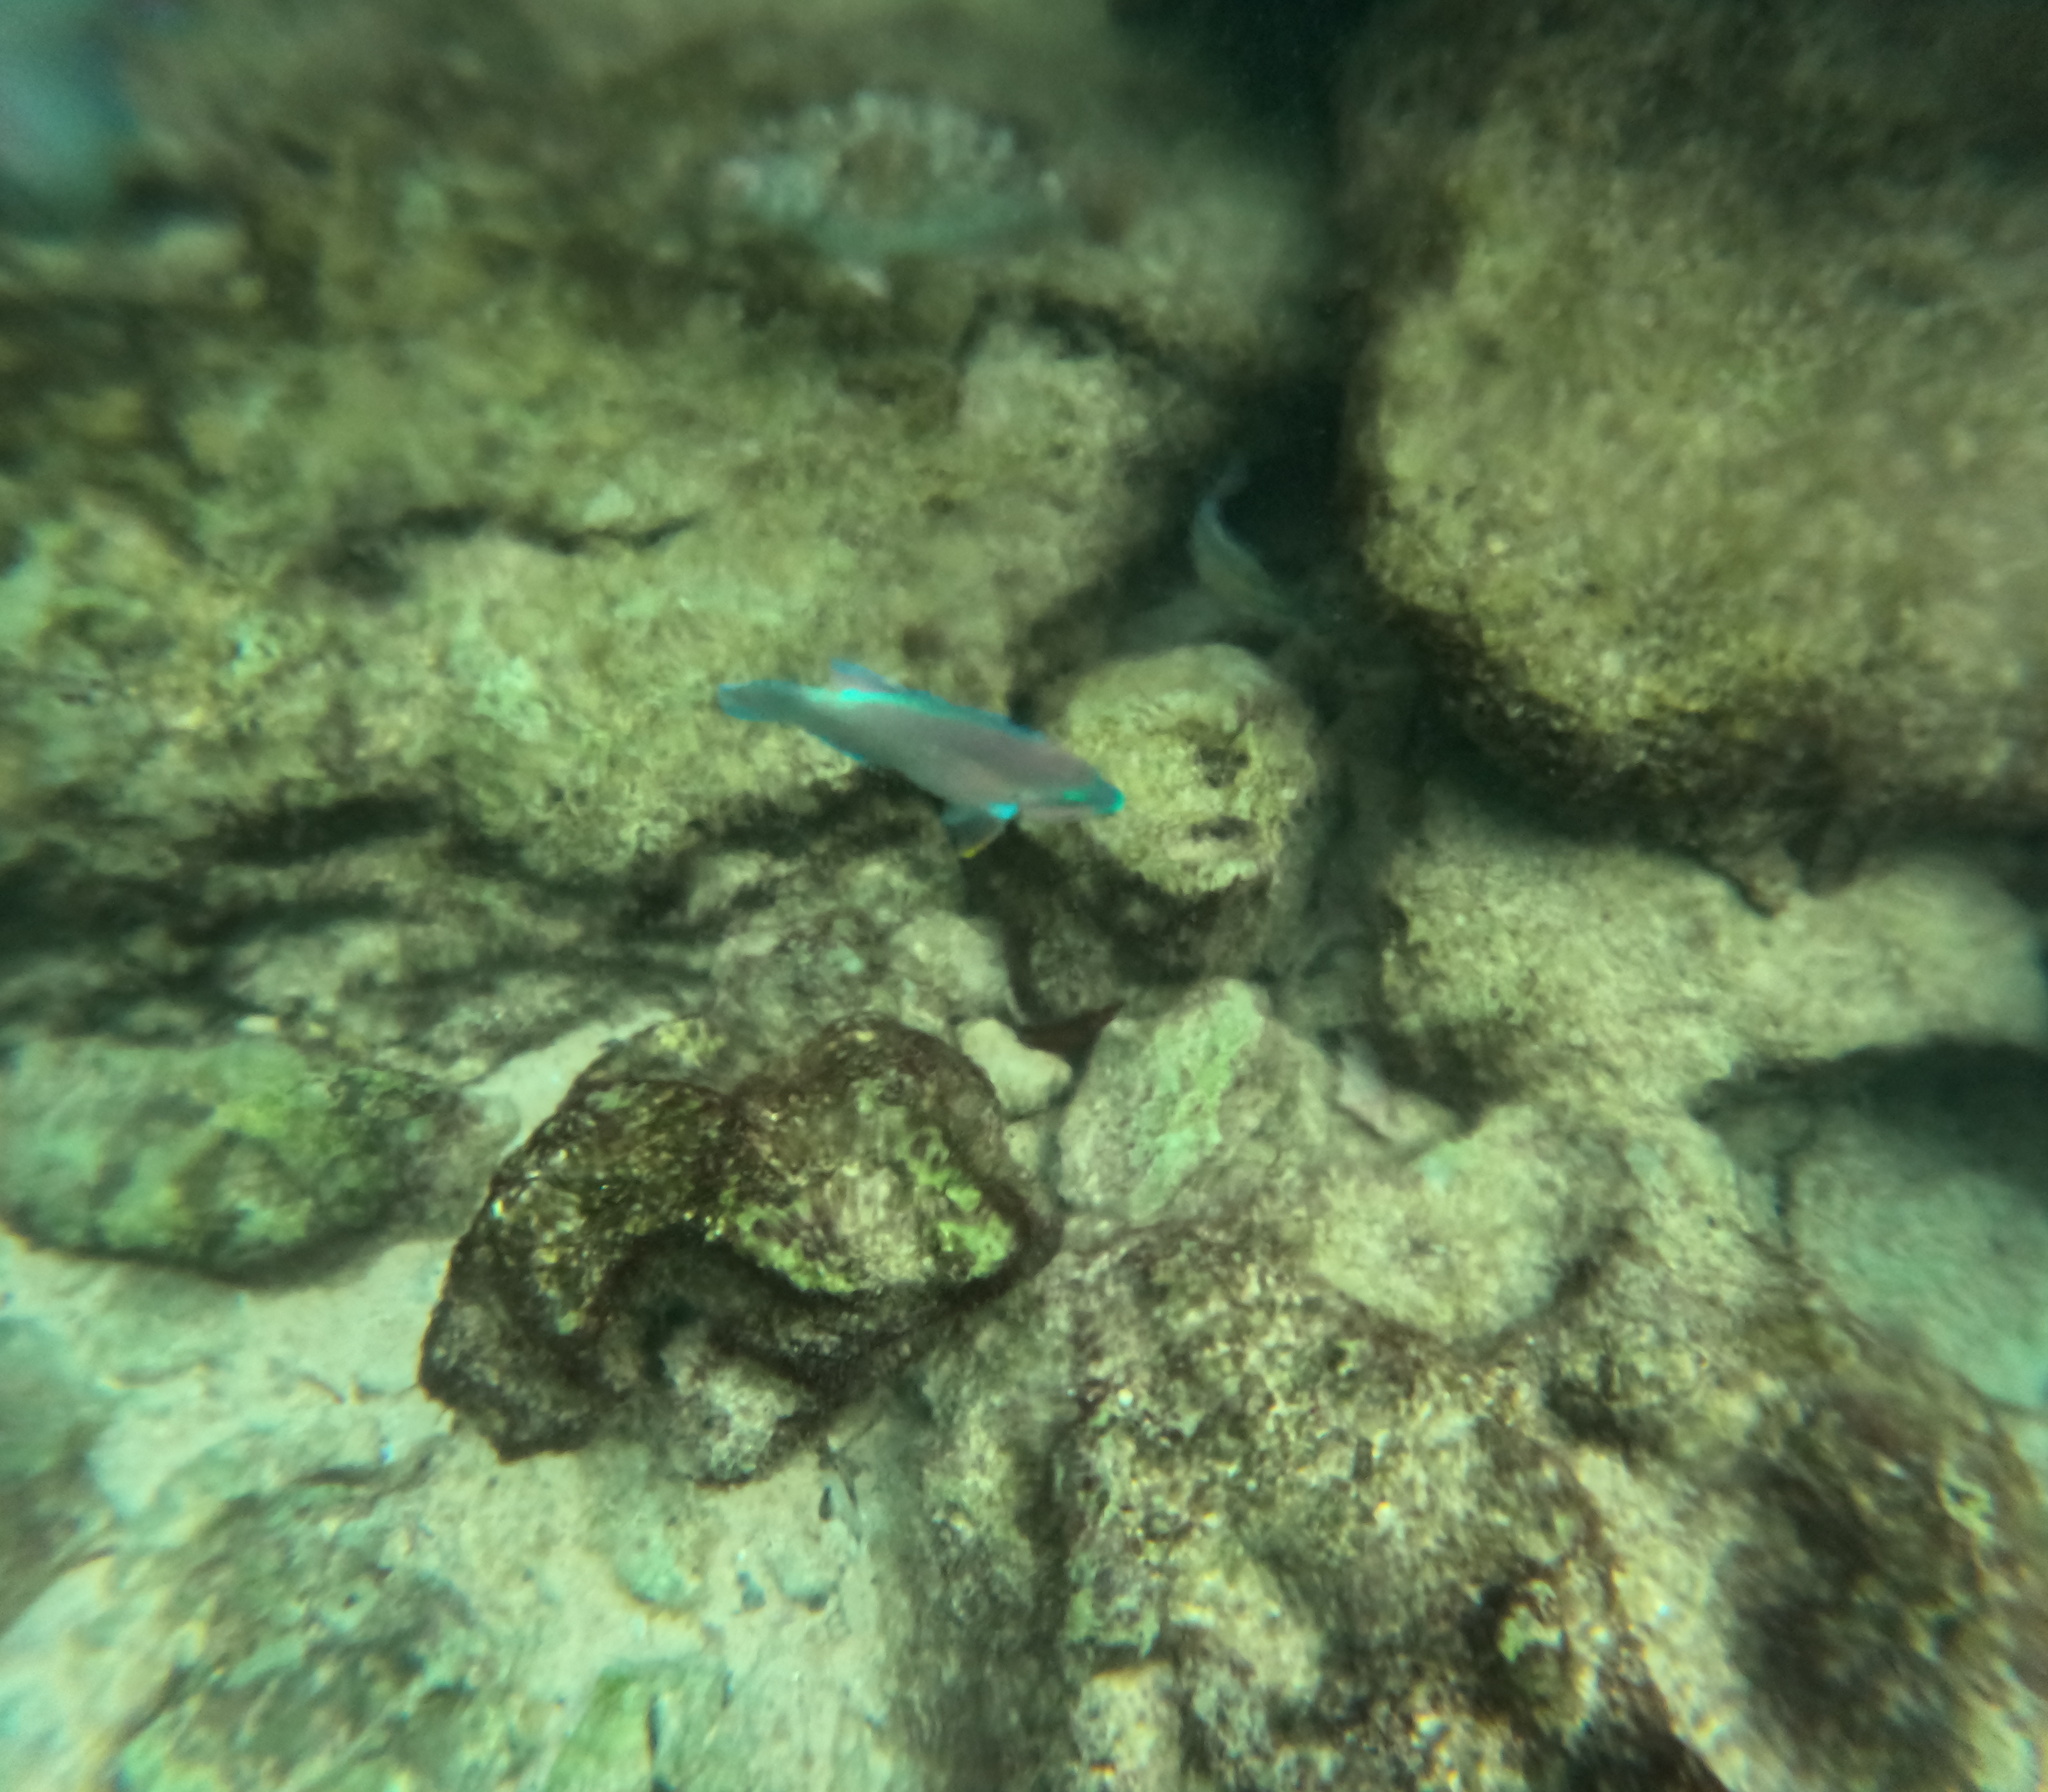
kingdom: Animalia
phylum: Chordata
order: Perciformes
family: Scaridae
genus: Scarus
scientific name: Scarus taeniopterus
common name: Princess parrotfish
